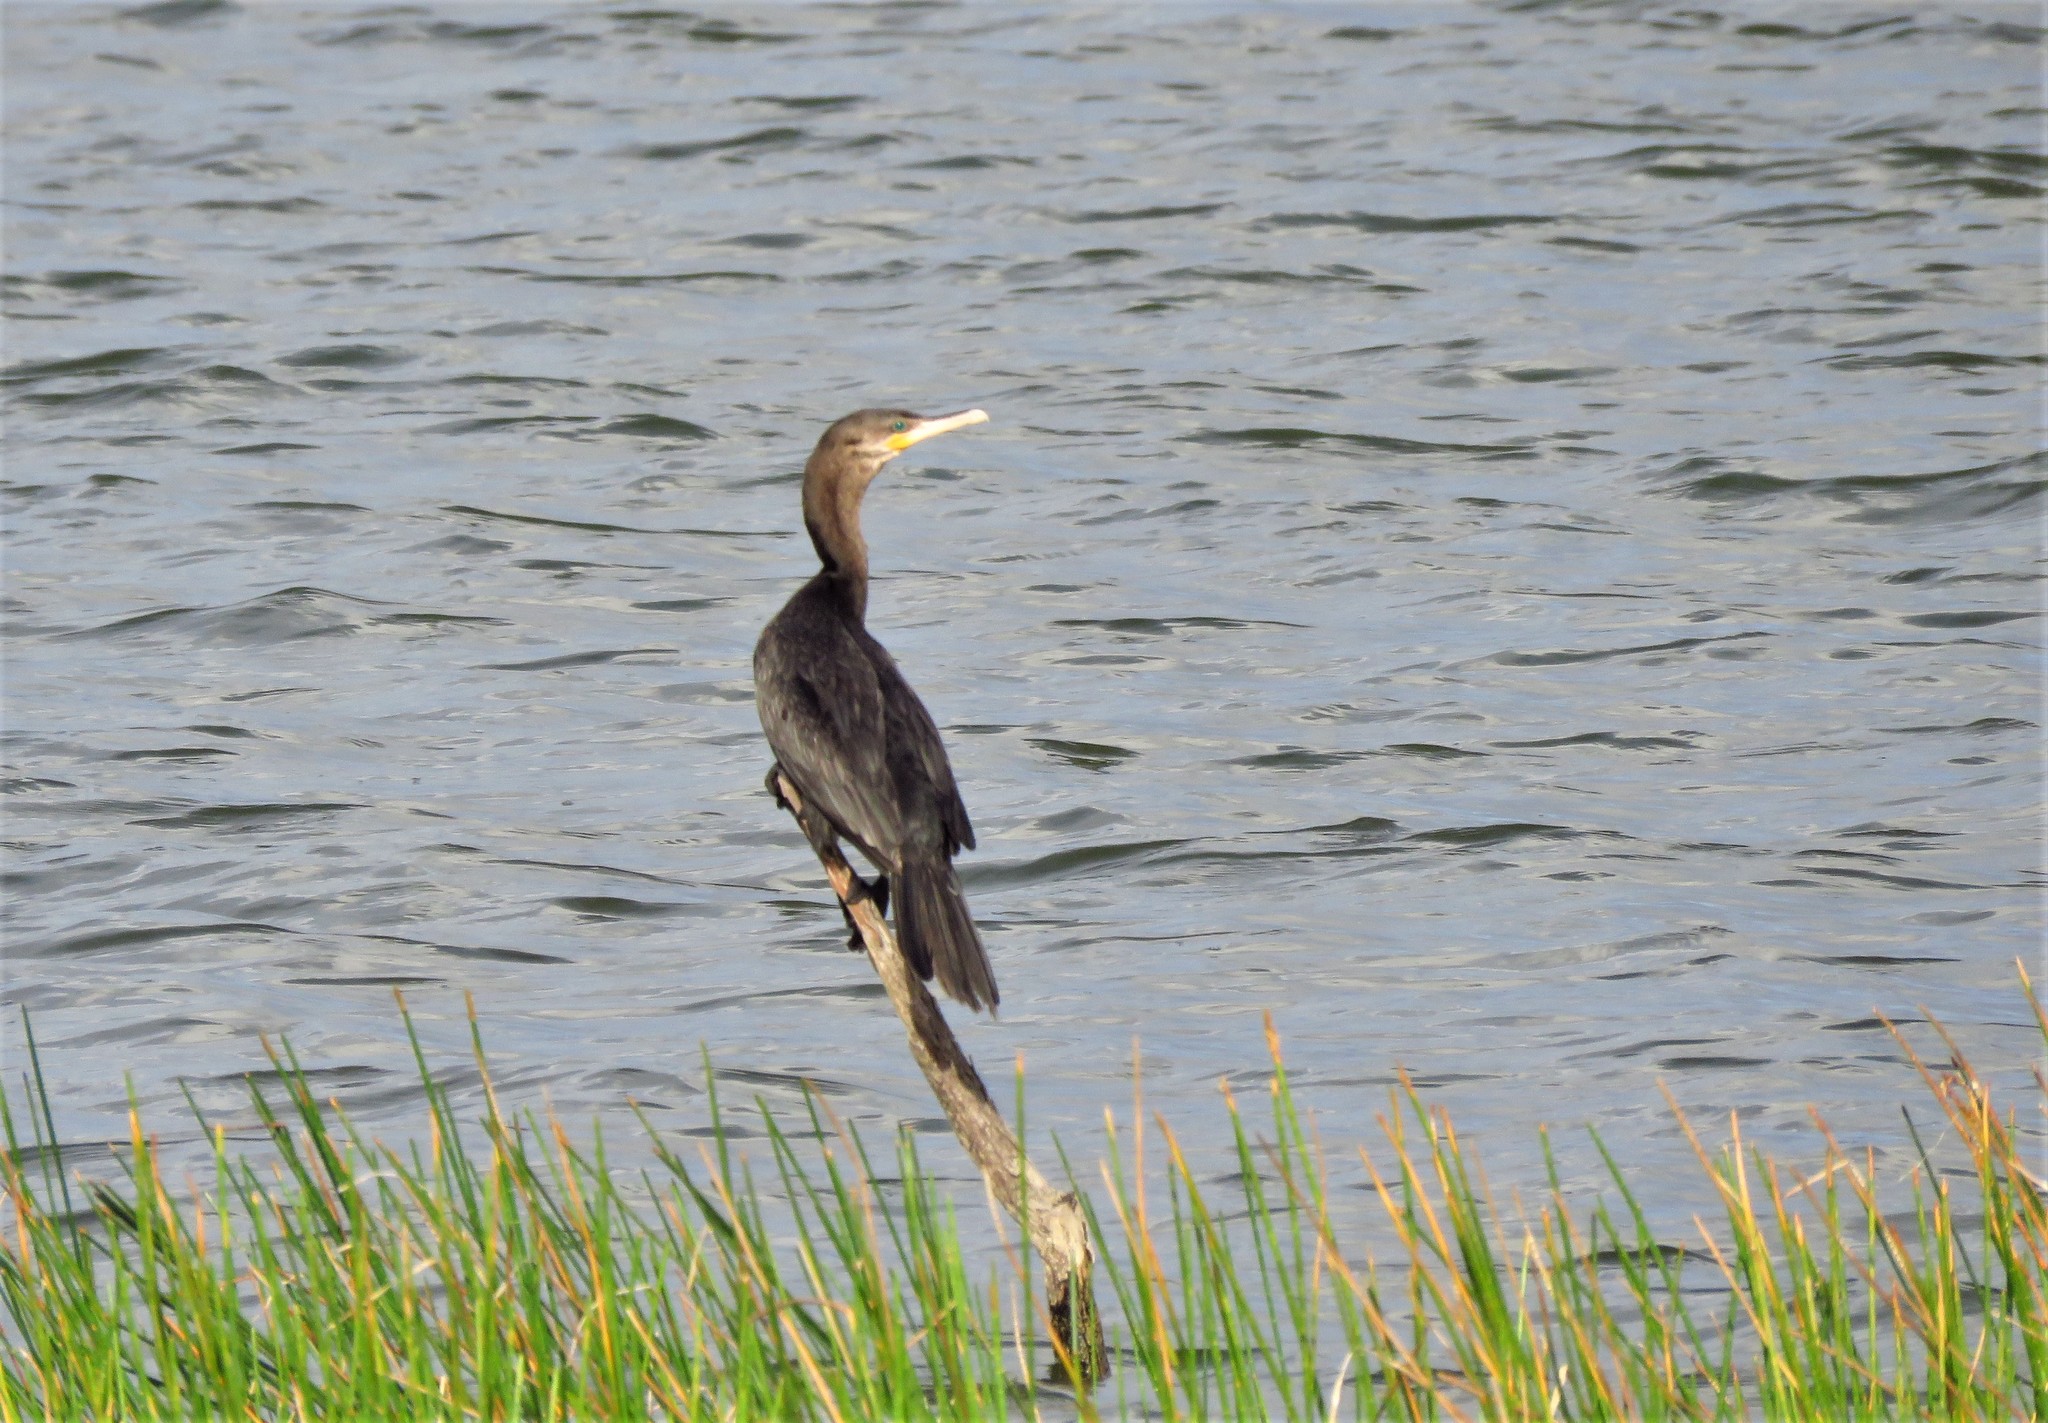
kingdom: Animalia
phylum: Chordata
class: Aves
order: Suliformes
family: Phalacrocoracidae
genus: Phalacrocorax
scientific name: Phalacrocorax brasilianus
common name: Neotropic cormorant
